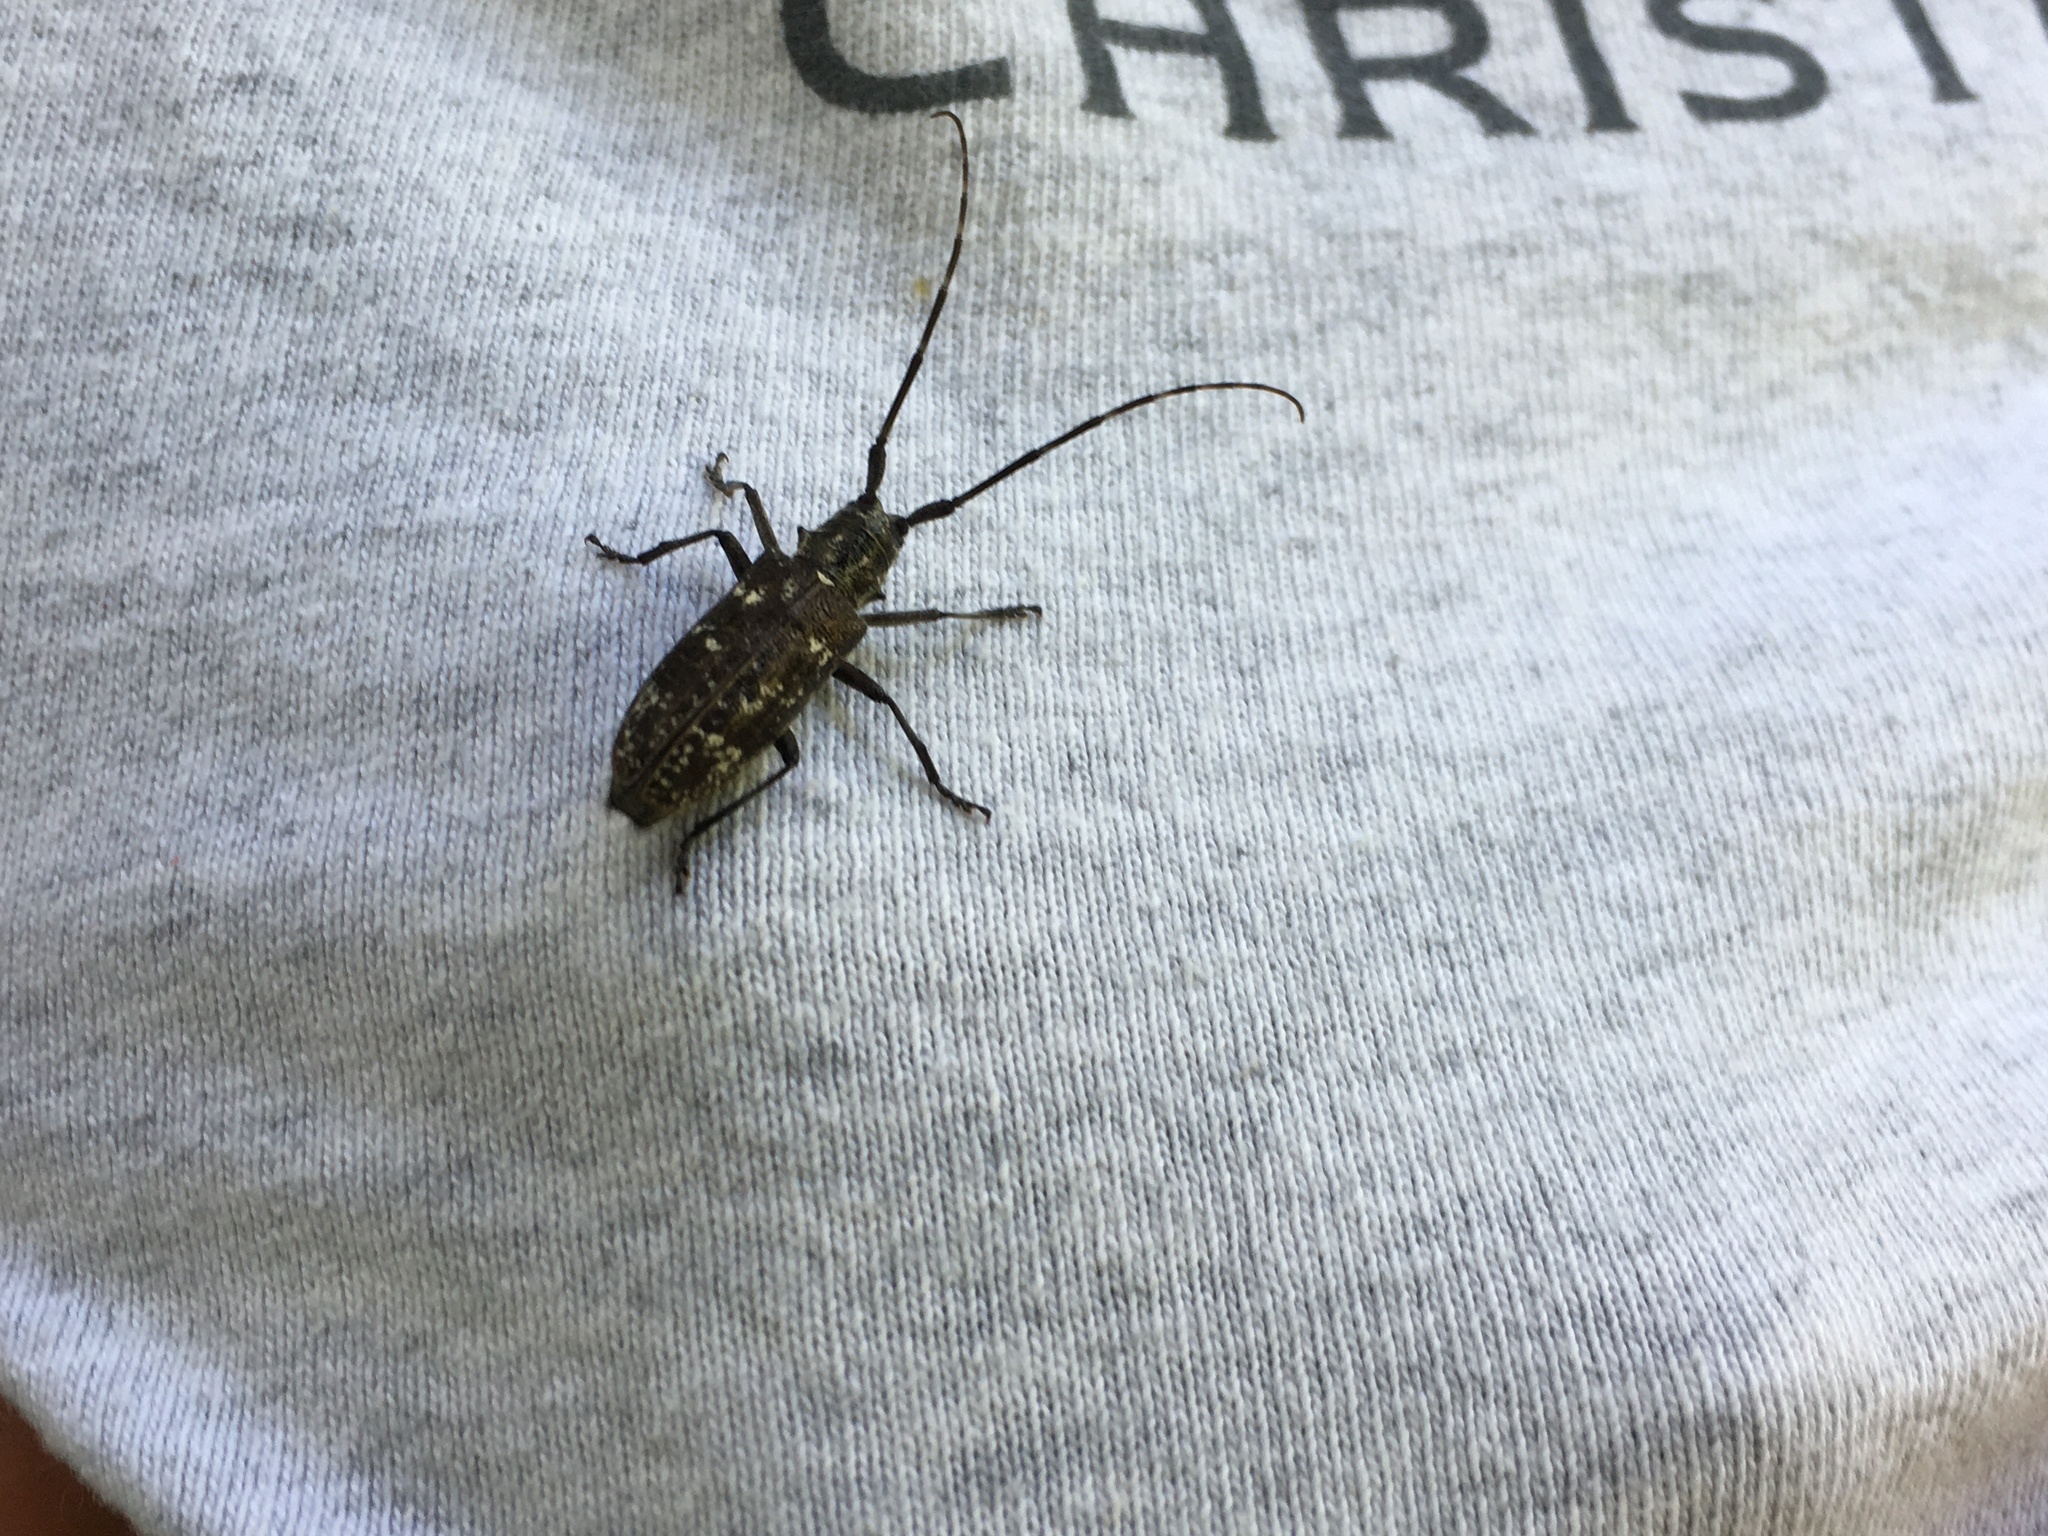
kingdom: Animalia
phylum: Arthropoda
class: Insecta
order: Coleoptera
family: Cerambycidae
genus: Monochamus
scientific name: Monochamus scutellatus
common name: White-spotted sawyer beetle
